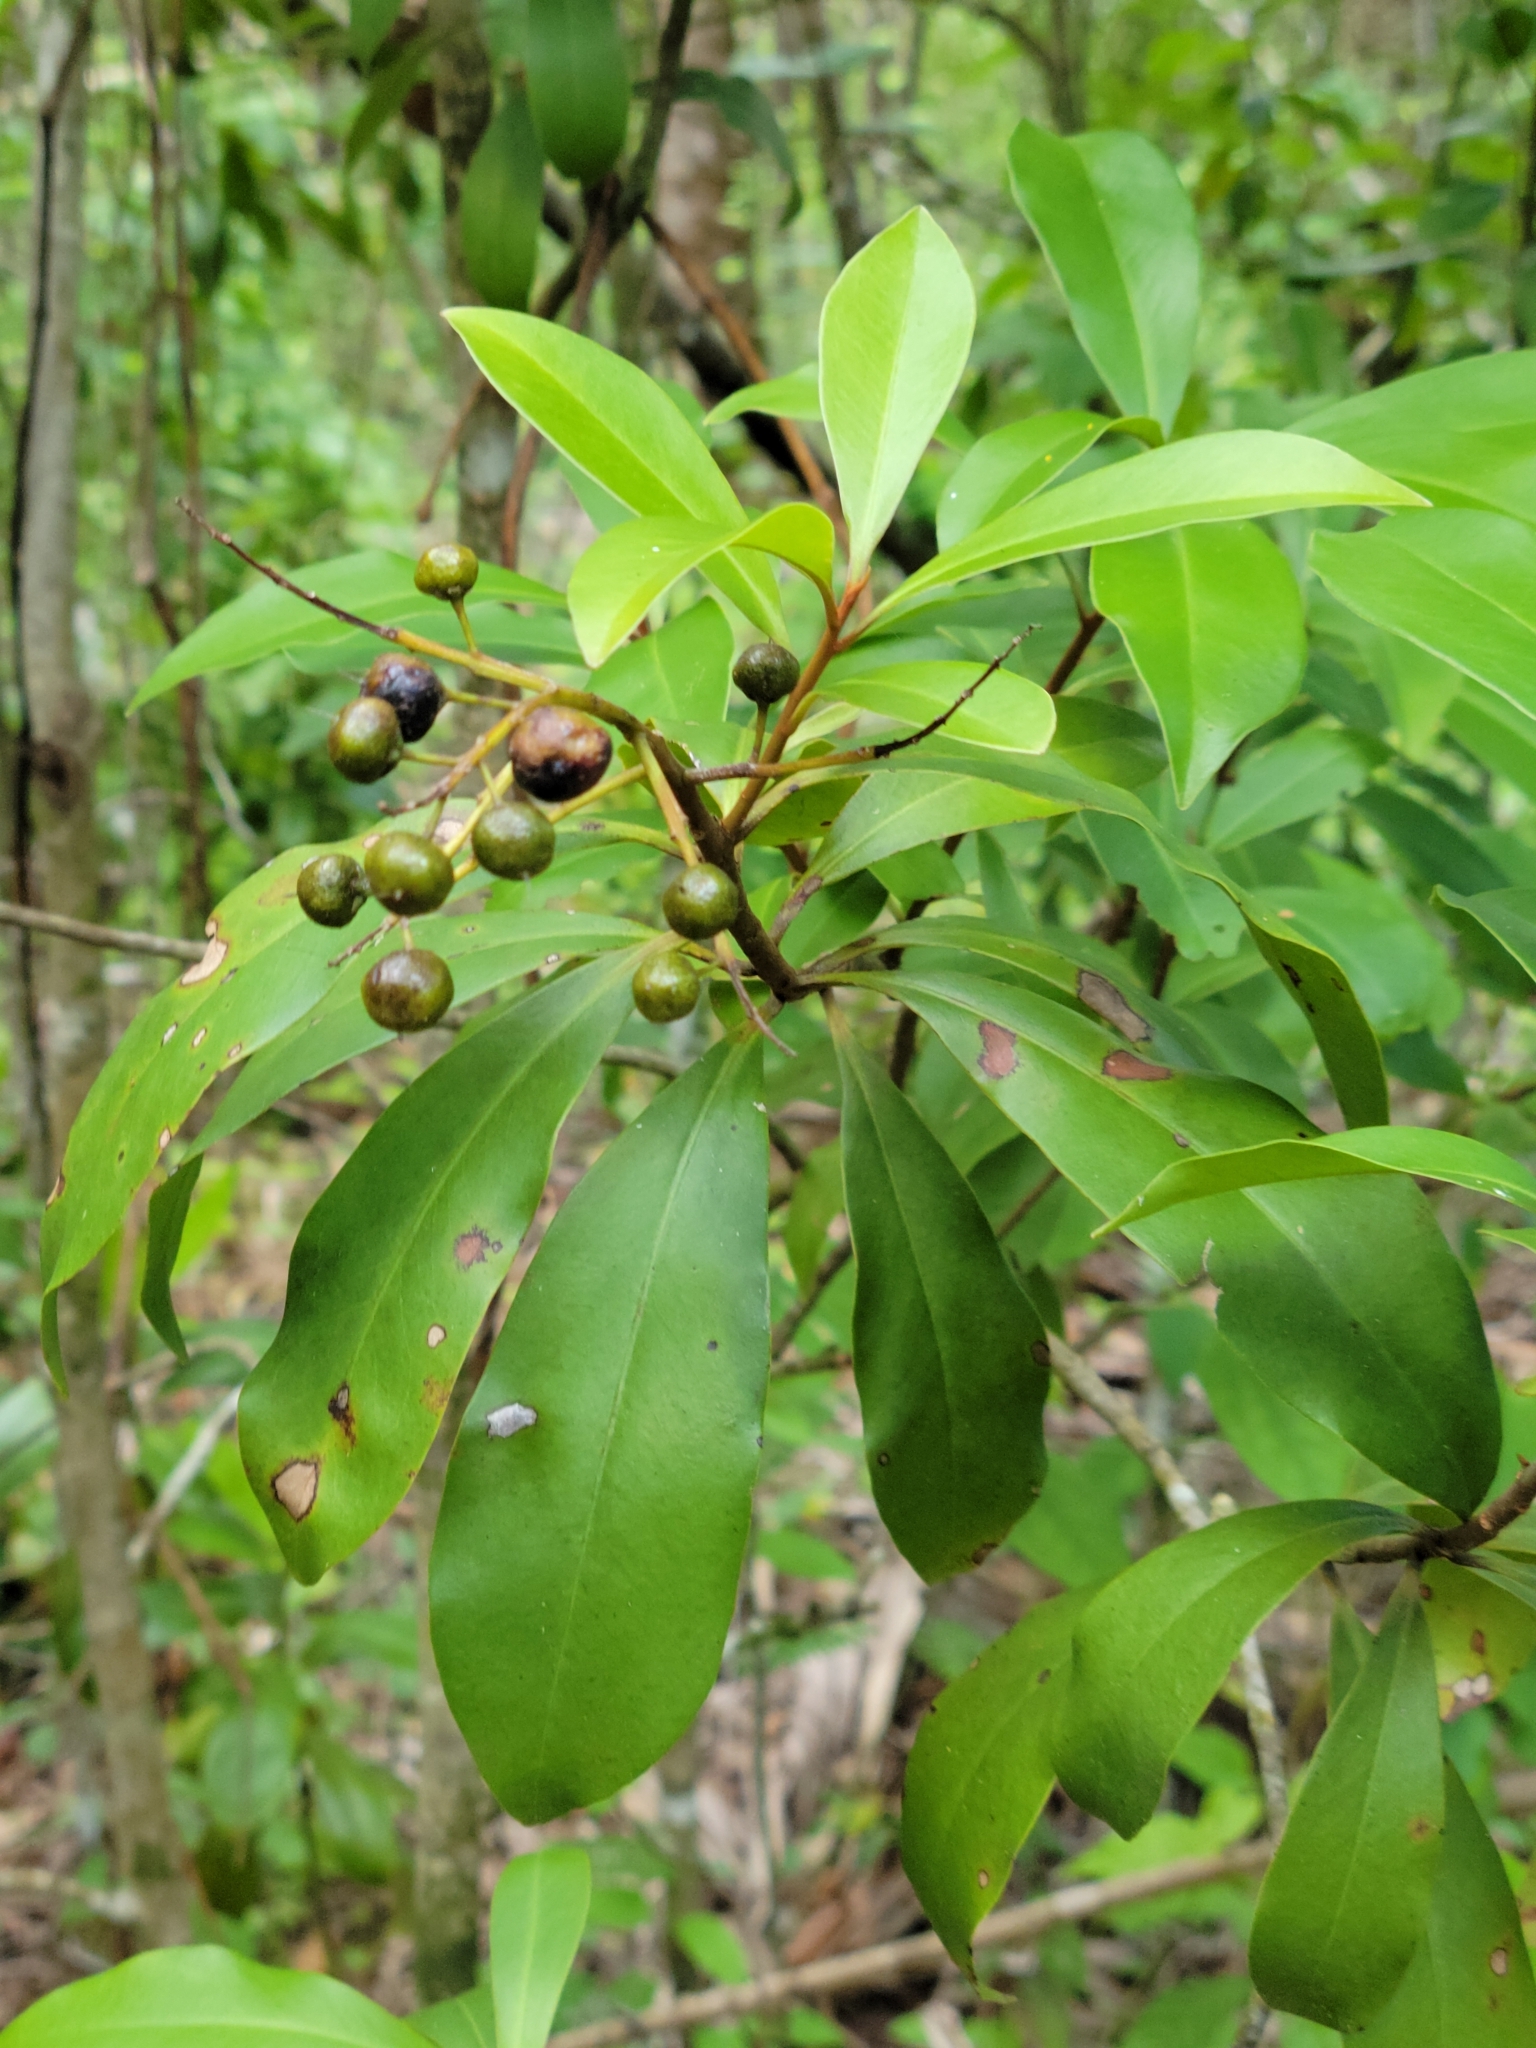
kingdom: Plantae
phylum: Tracheophyta
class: Magnoliopsida
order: Ericales
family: Primulaceae
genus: Ardisia
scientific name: Ardisia escallonioides
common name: Island marlberry
